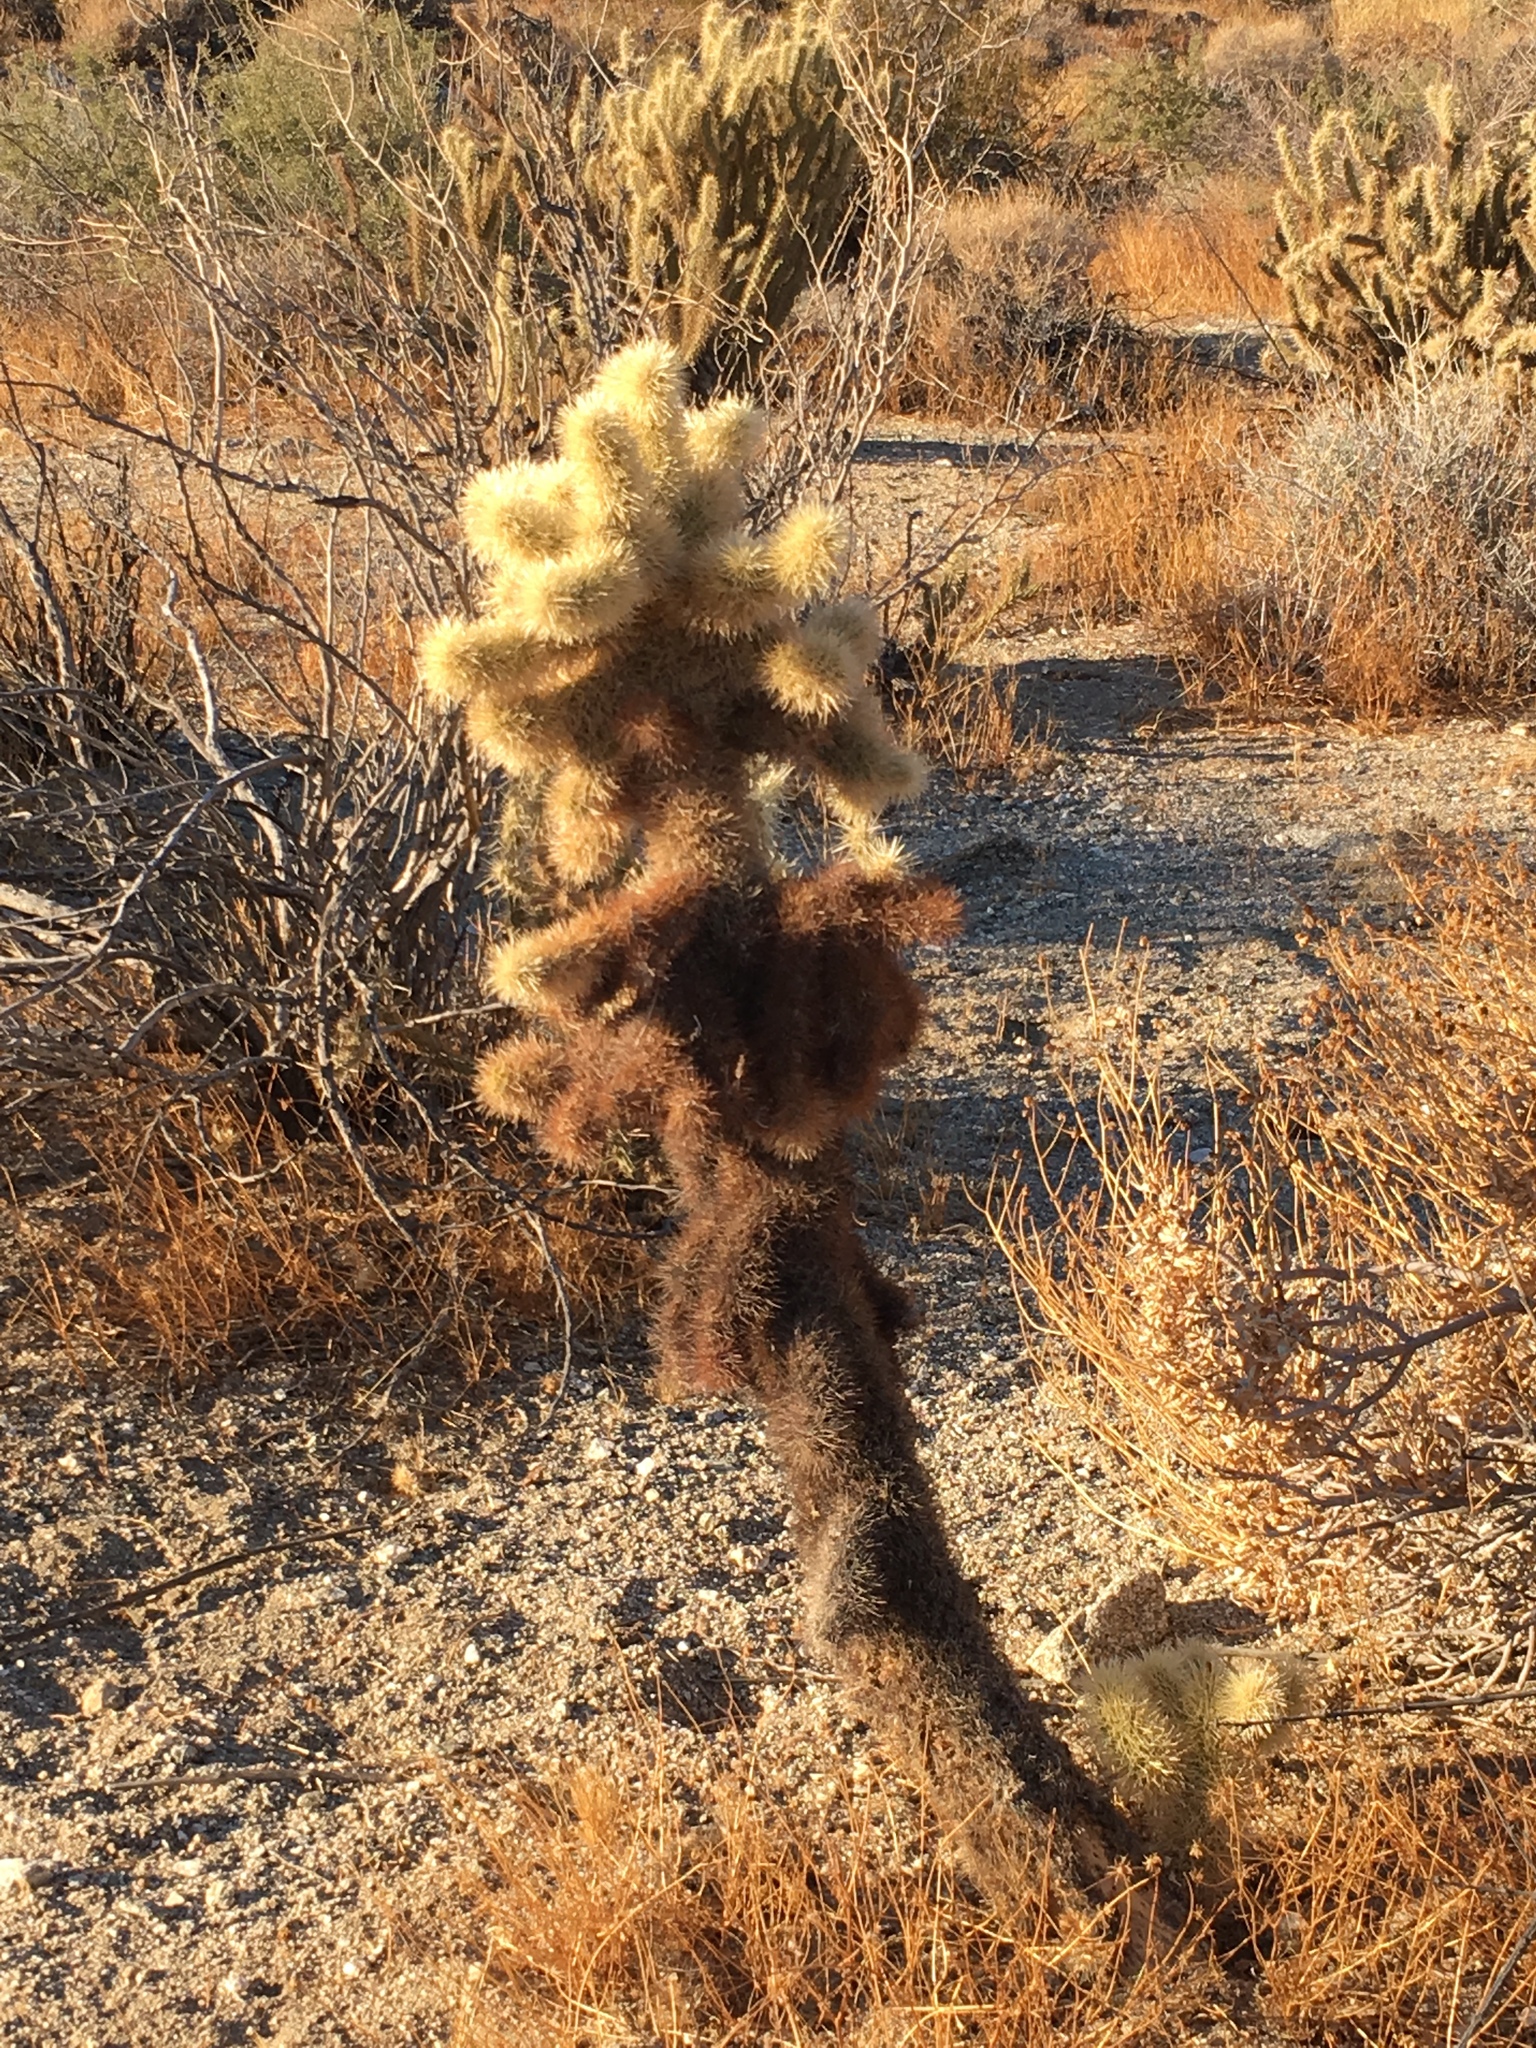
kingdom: Plantae
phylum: Tracheophyta
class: Magnoliopsida
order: Caryophyllales
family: Cactaceae
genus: Cylindropuntia
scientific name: Cylindropuntia fosbergii
